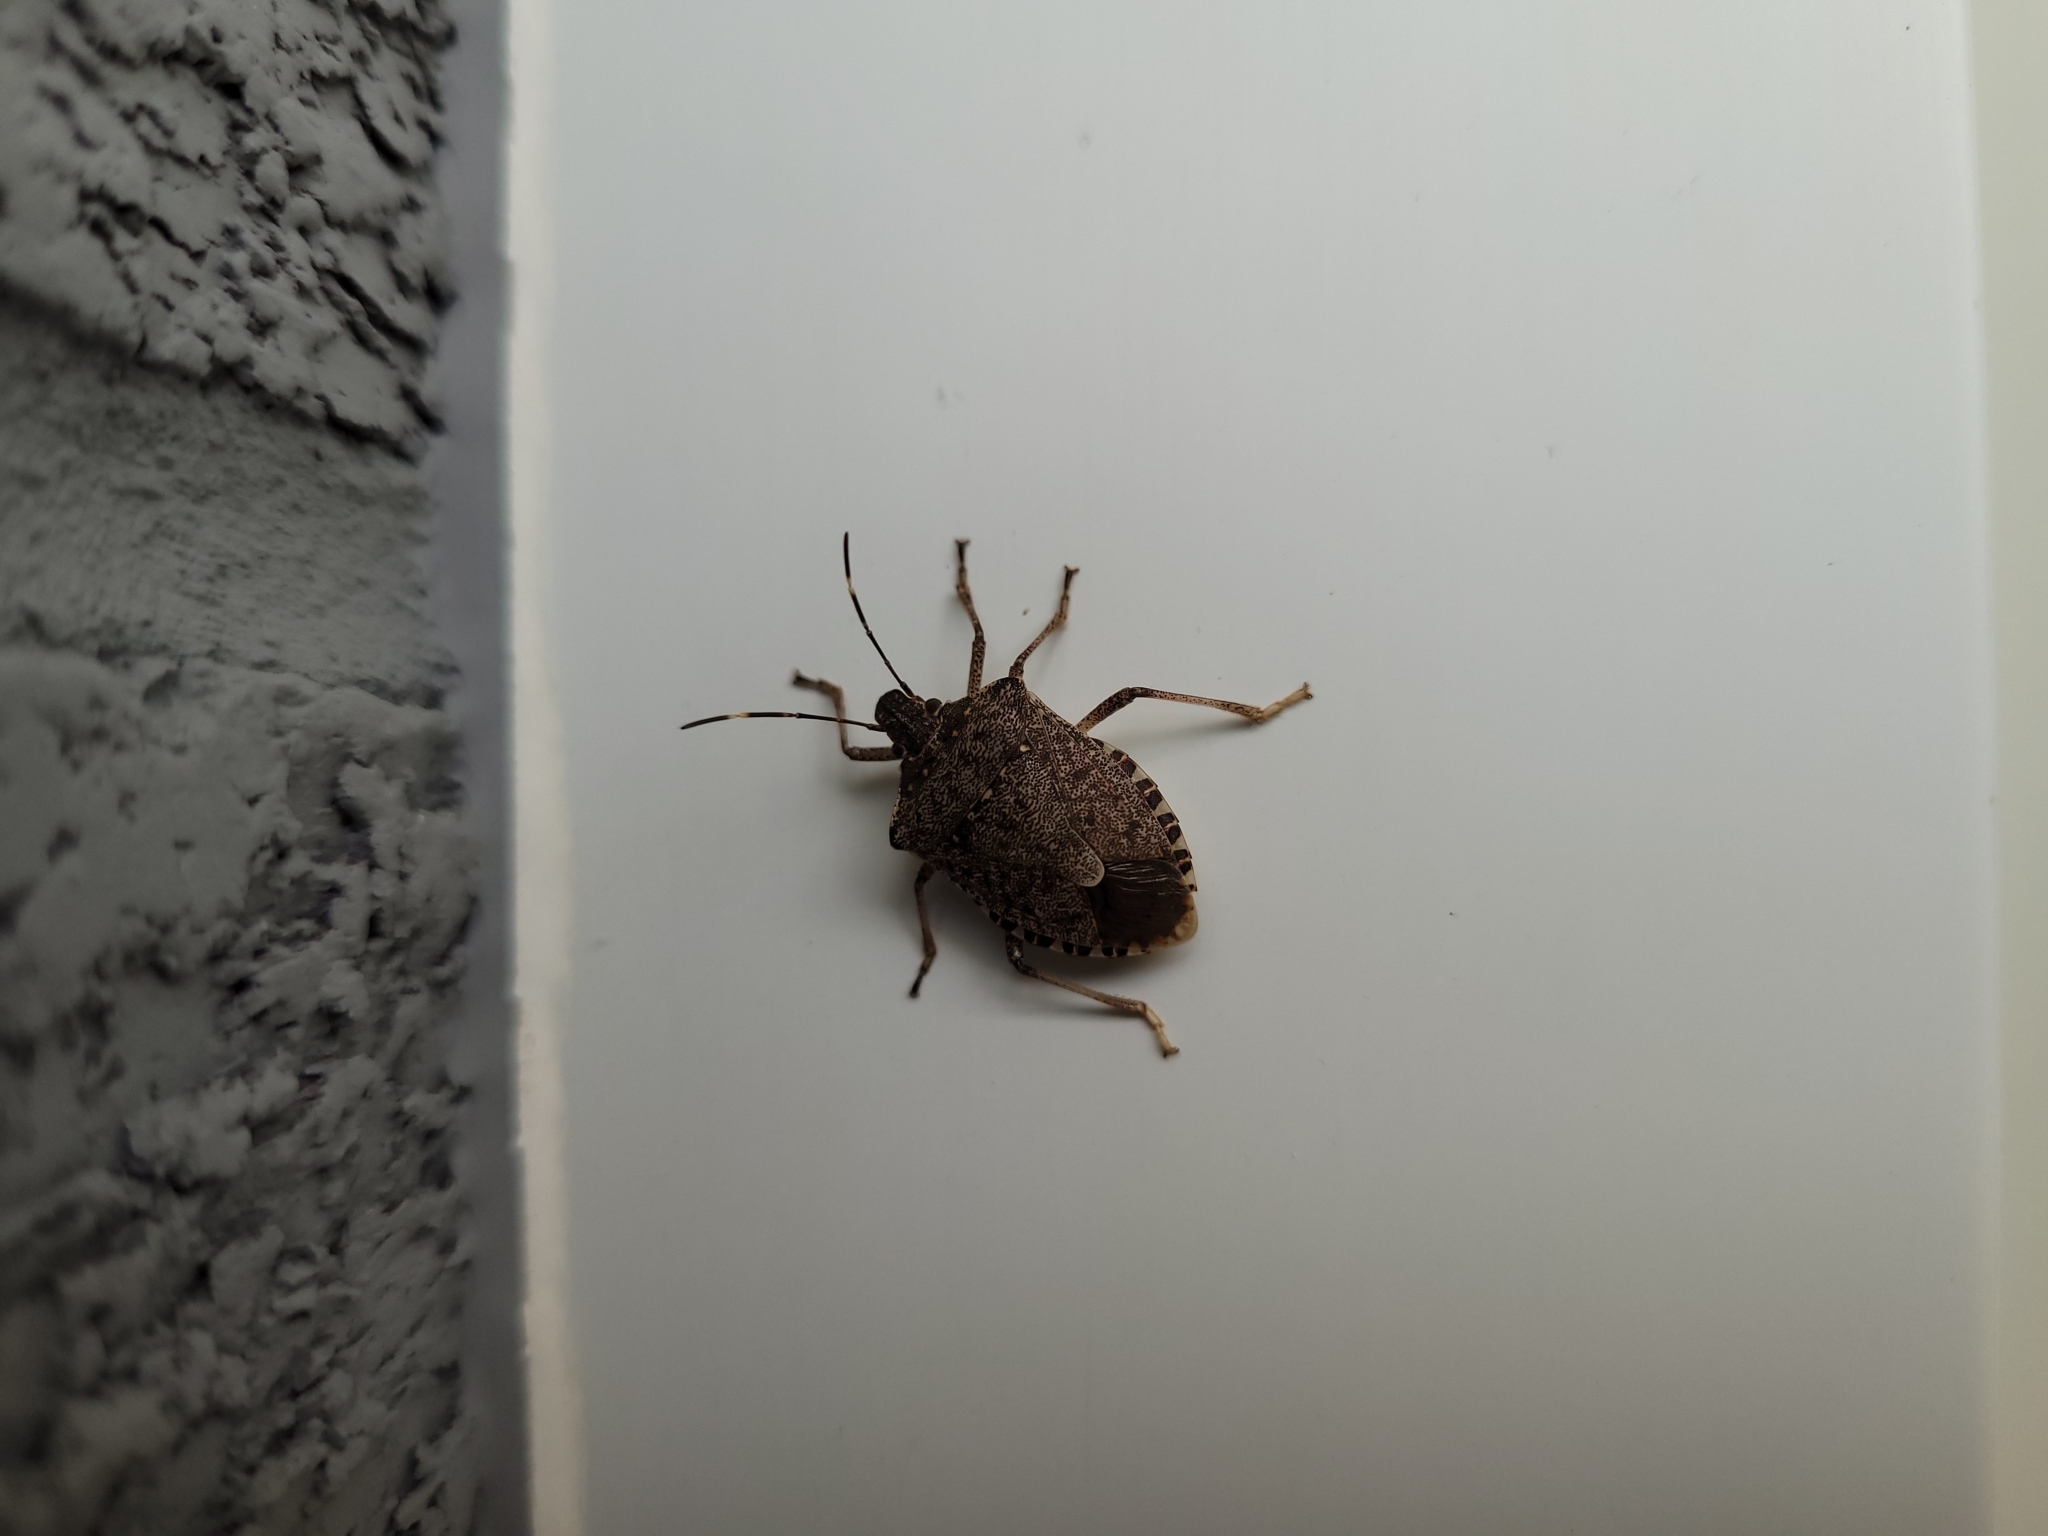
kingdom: Animalia
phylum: Arthropoda
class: Insecta
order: Hemiptera
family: Pentatomidae
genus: Halyomorpha
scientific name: Halyomorpha halys
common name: Brown marmorated stink bug
